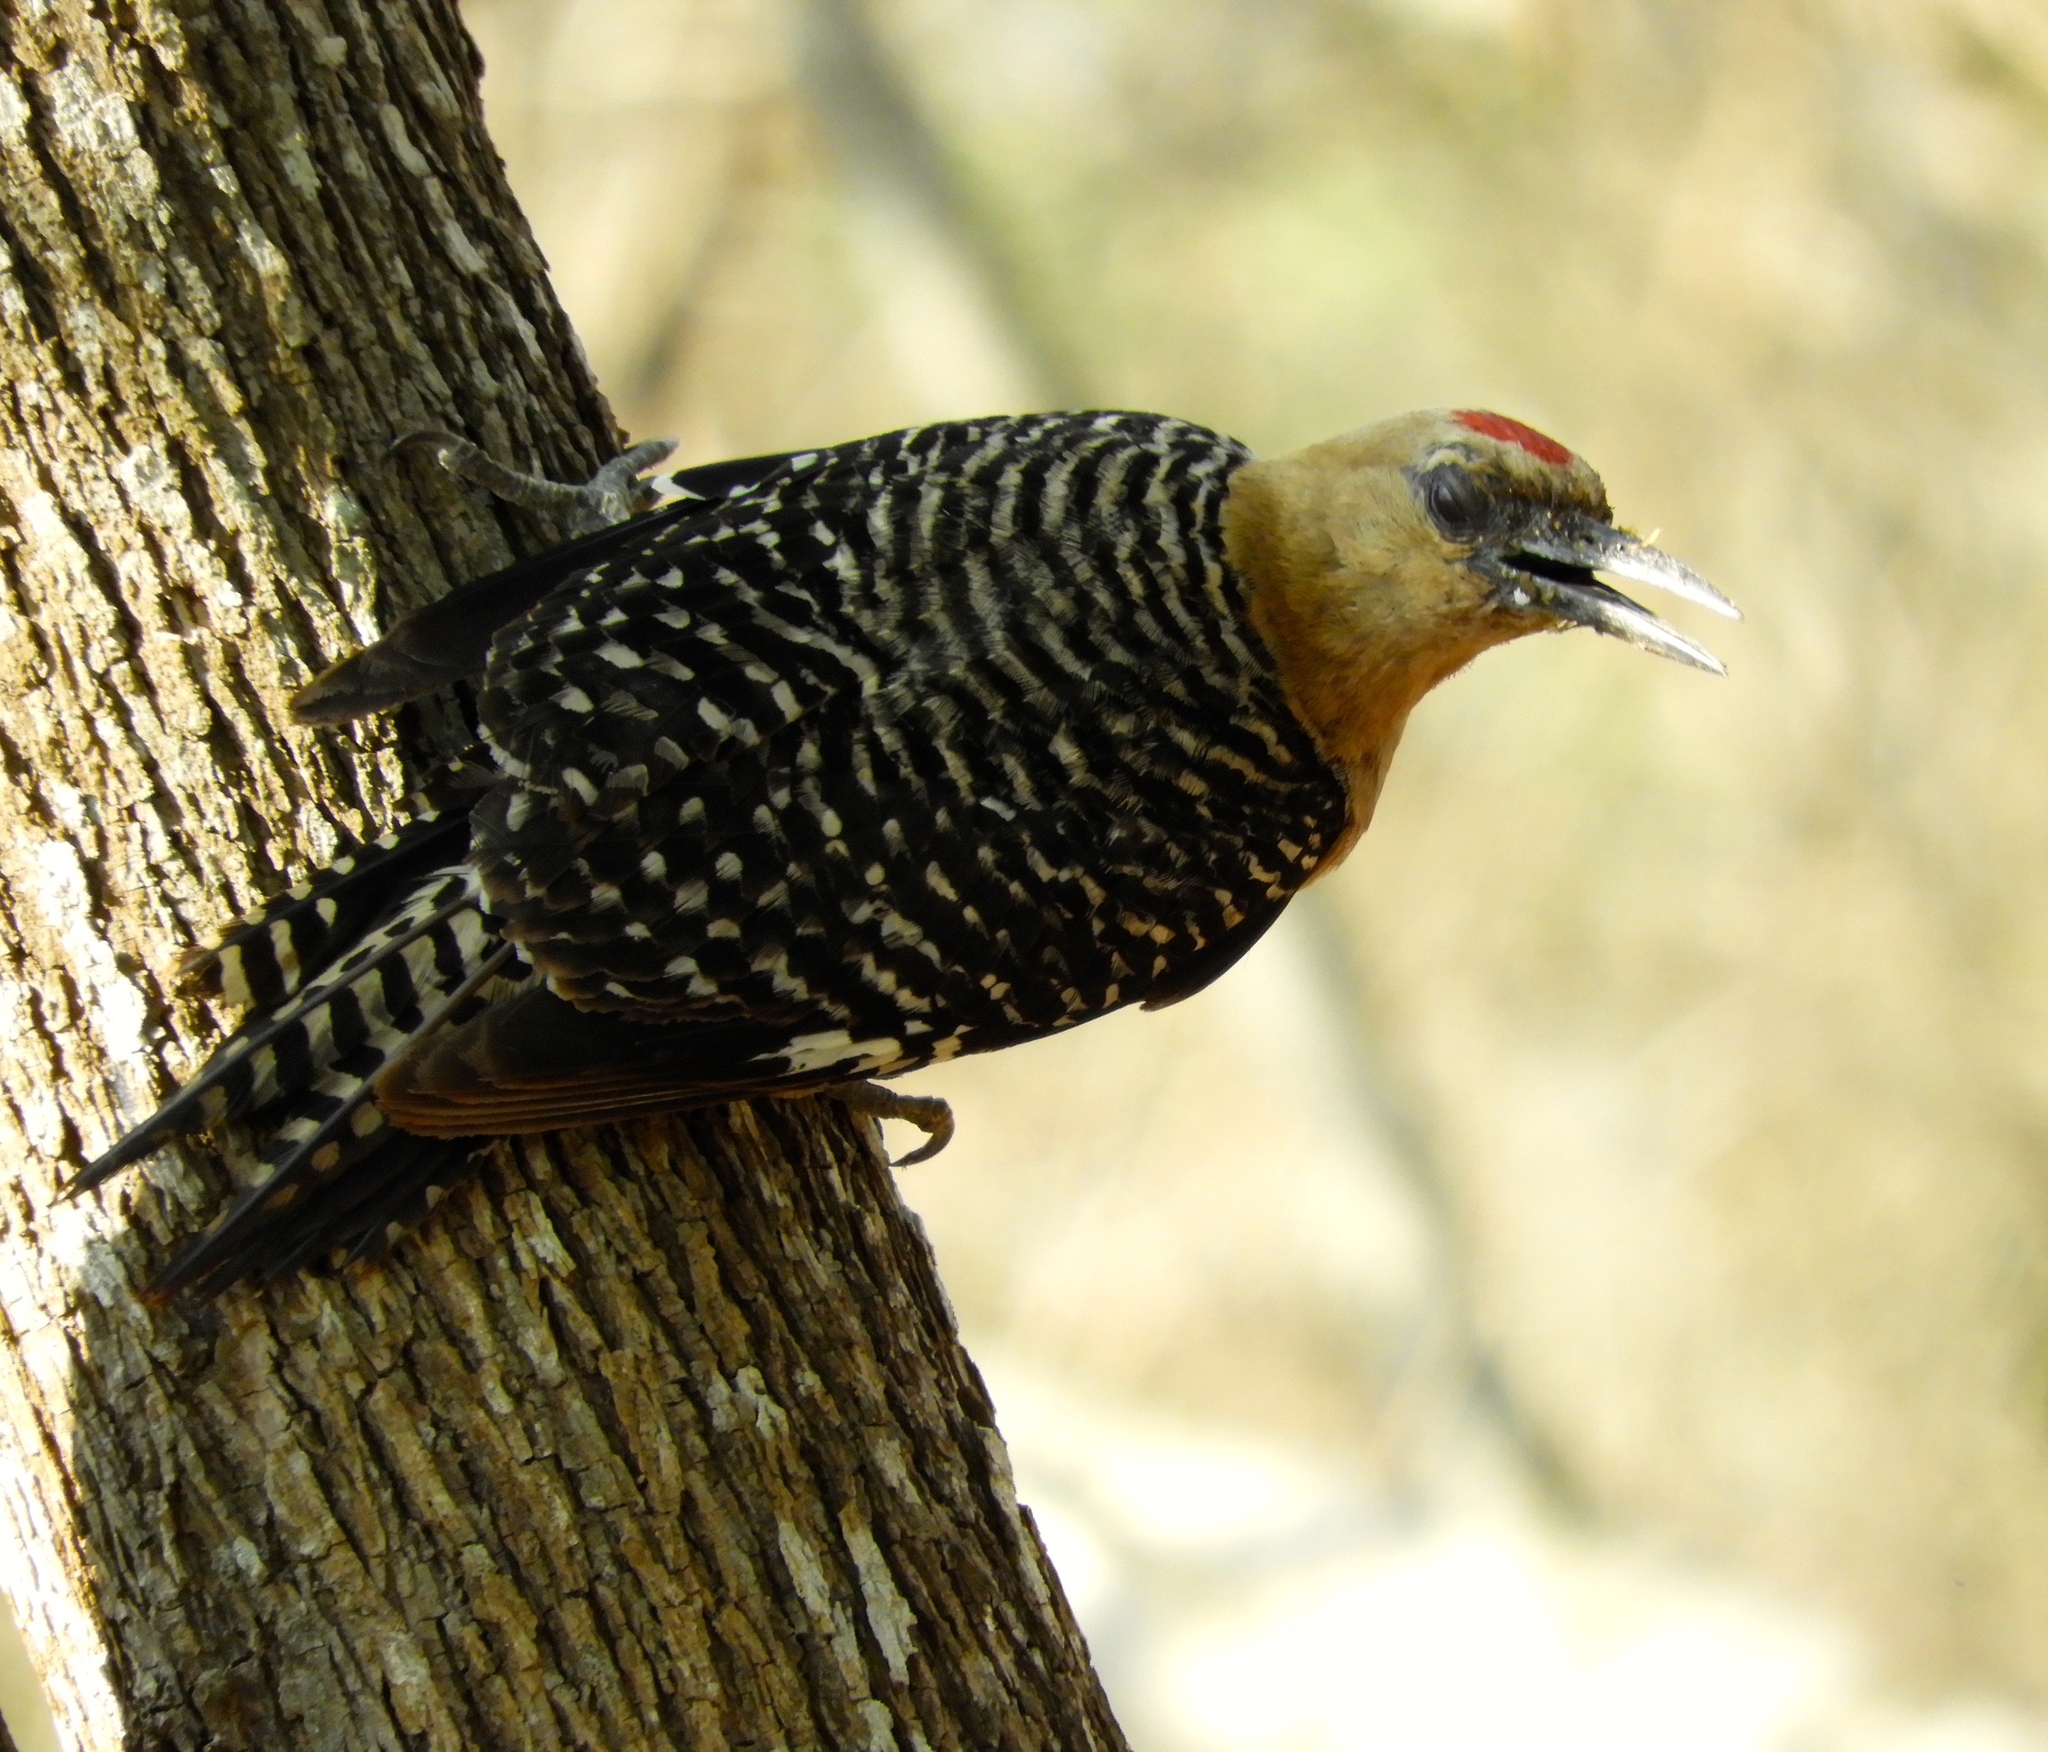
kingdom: Animalia
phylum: Chordata
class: Aves
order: Piciformes
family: Picidae
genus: Melanerpes
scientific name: Melanerpes uropygialis
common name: Gila woodpecker
